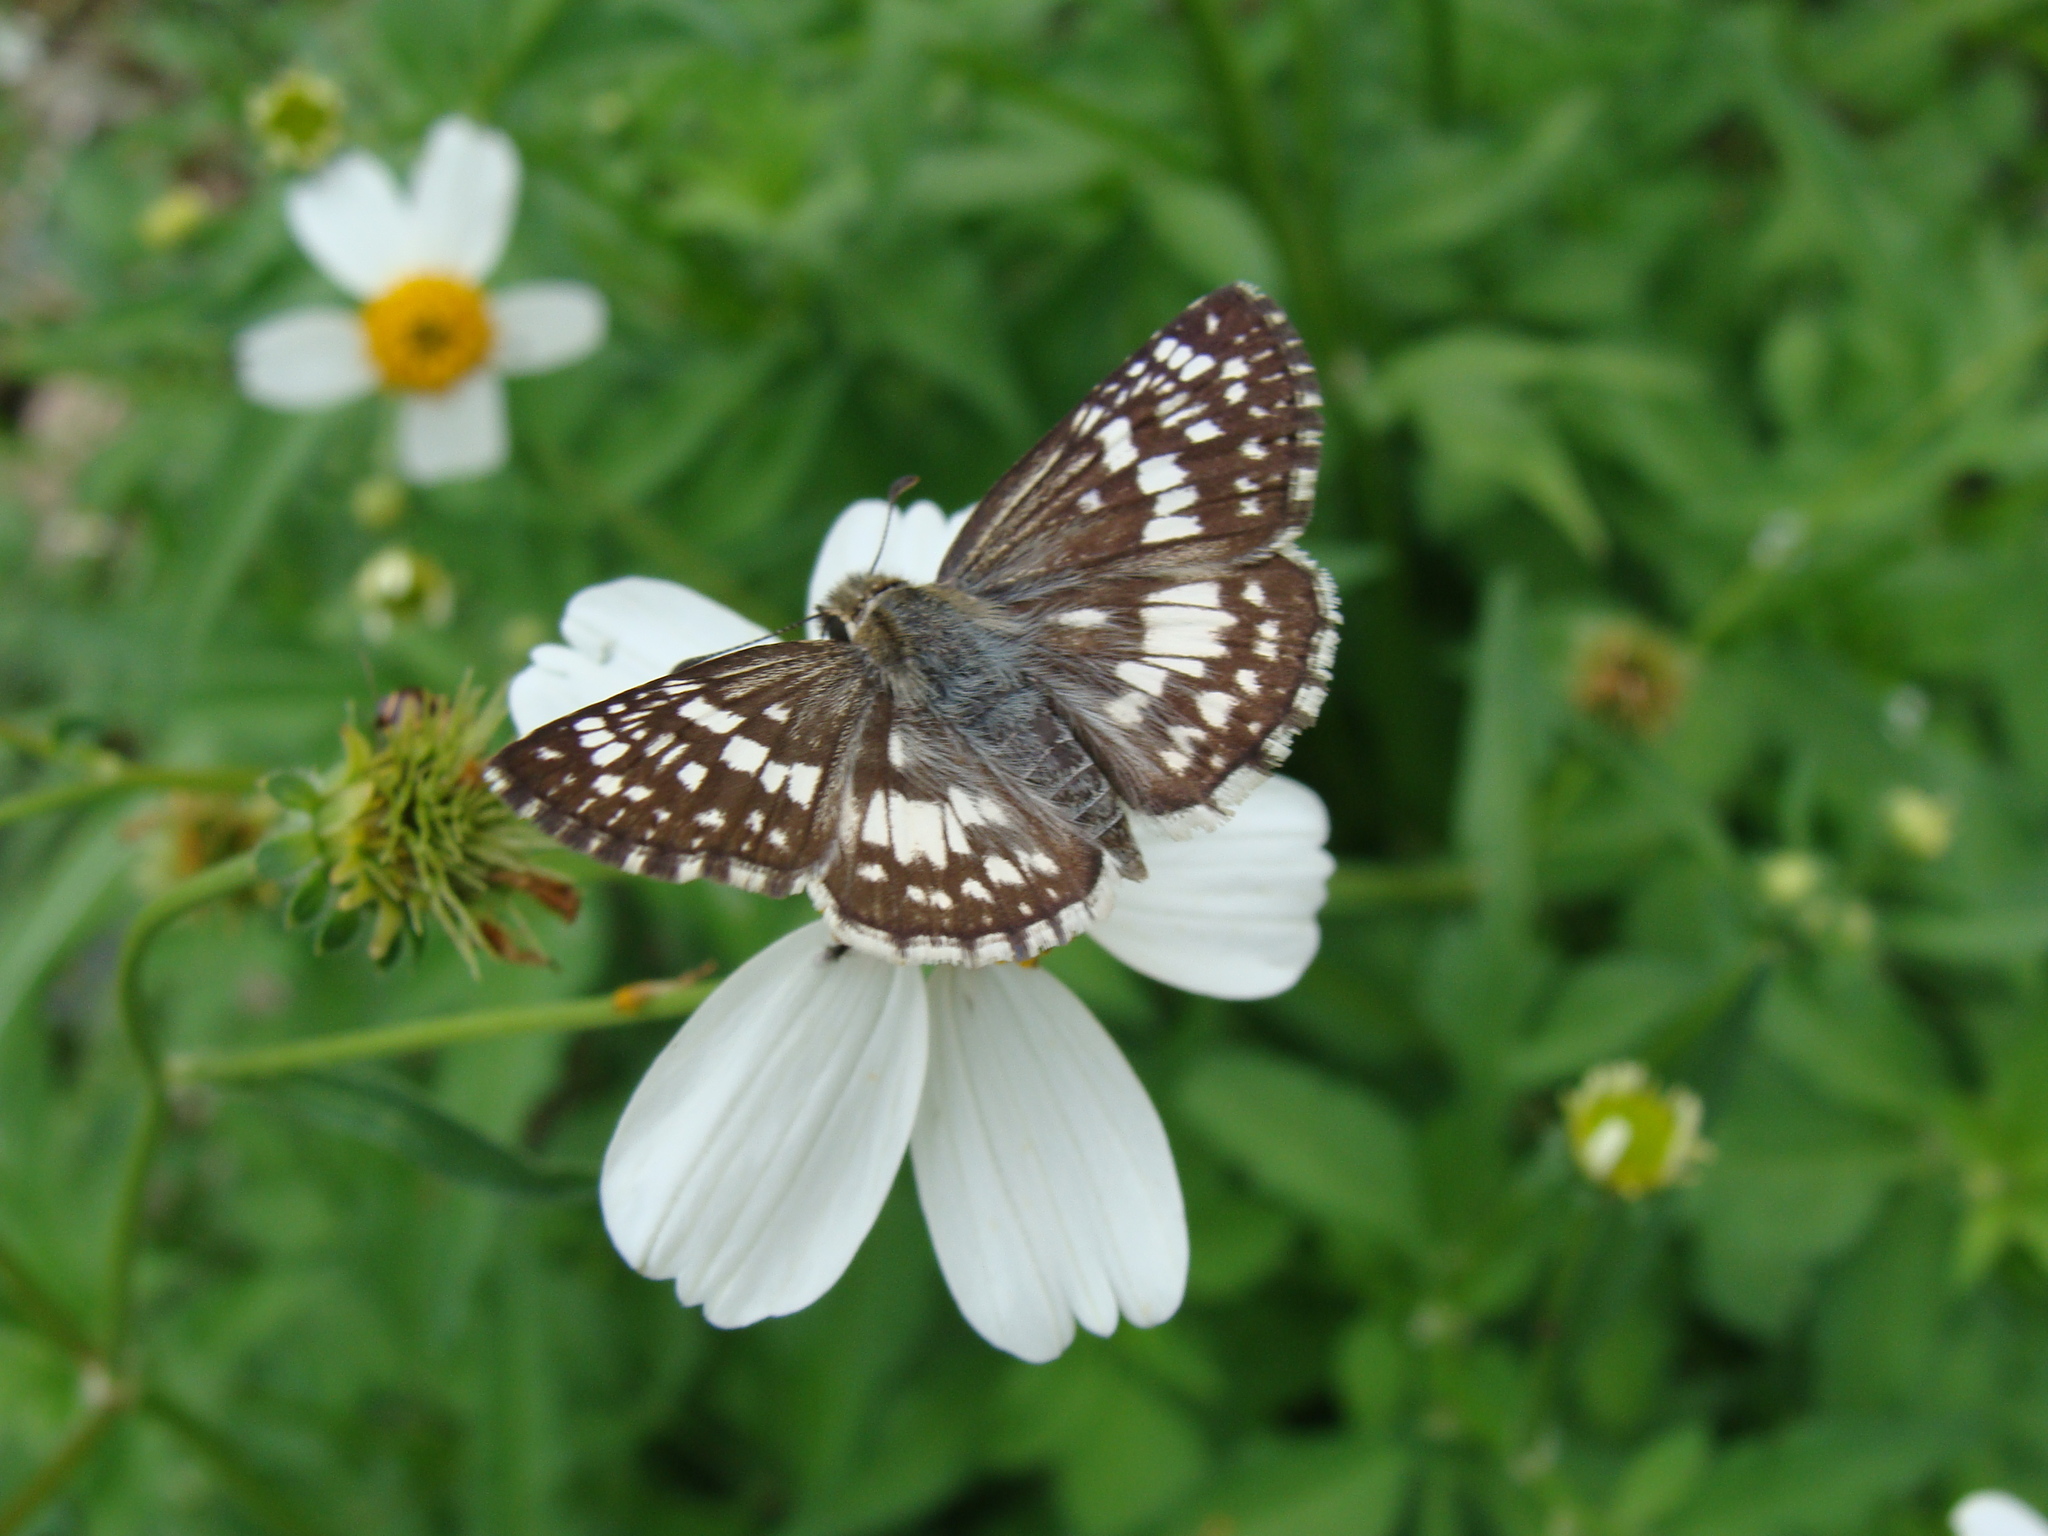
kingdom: Animalia
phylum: Arthropoda
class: Insecta
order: Lepidoptera
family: Hesperiidae
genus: Burnsius
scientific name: Burnsius adepta
